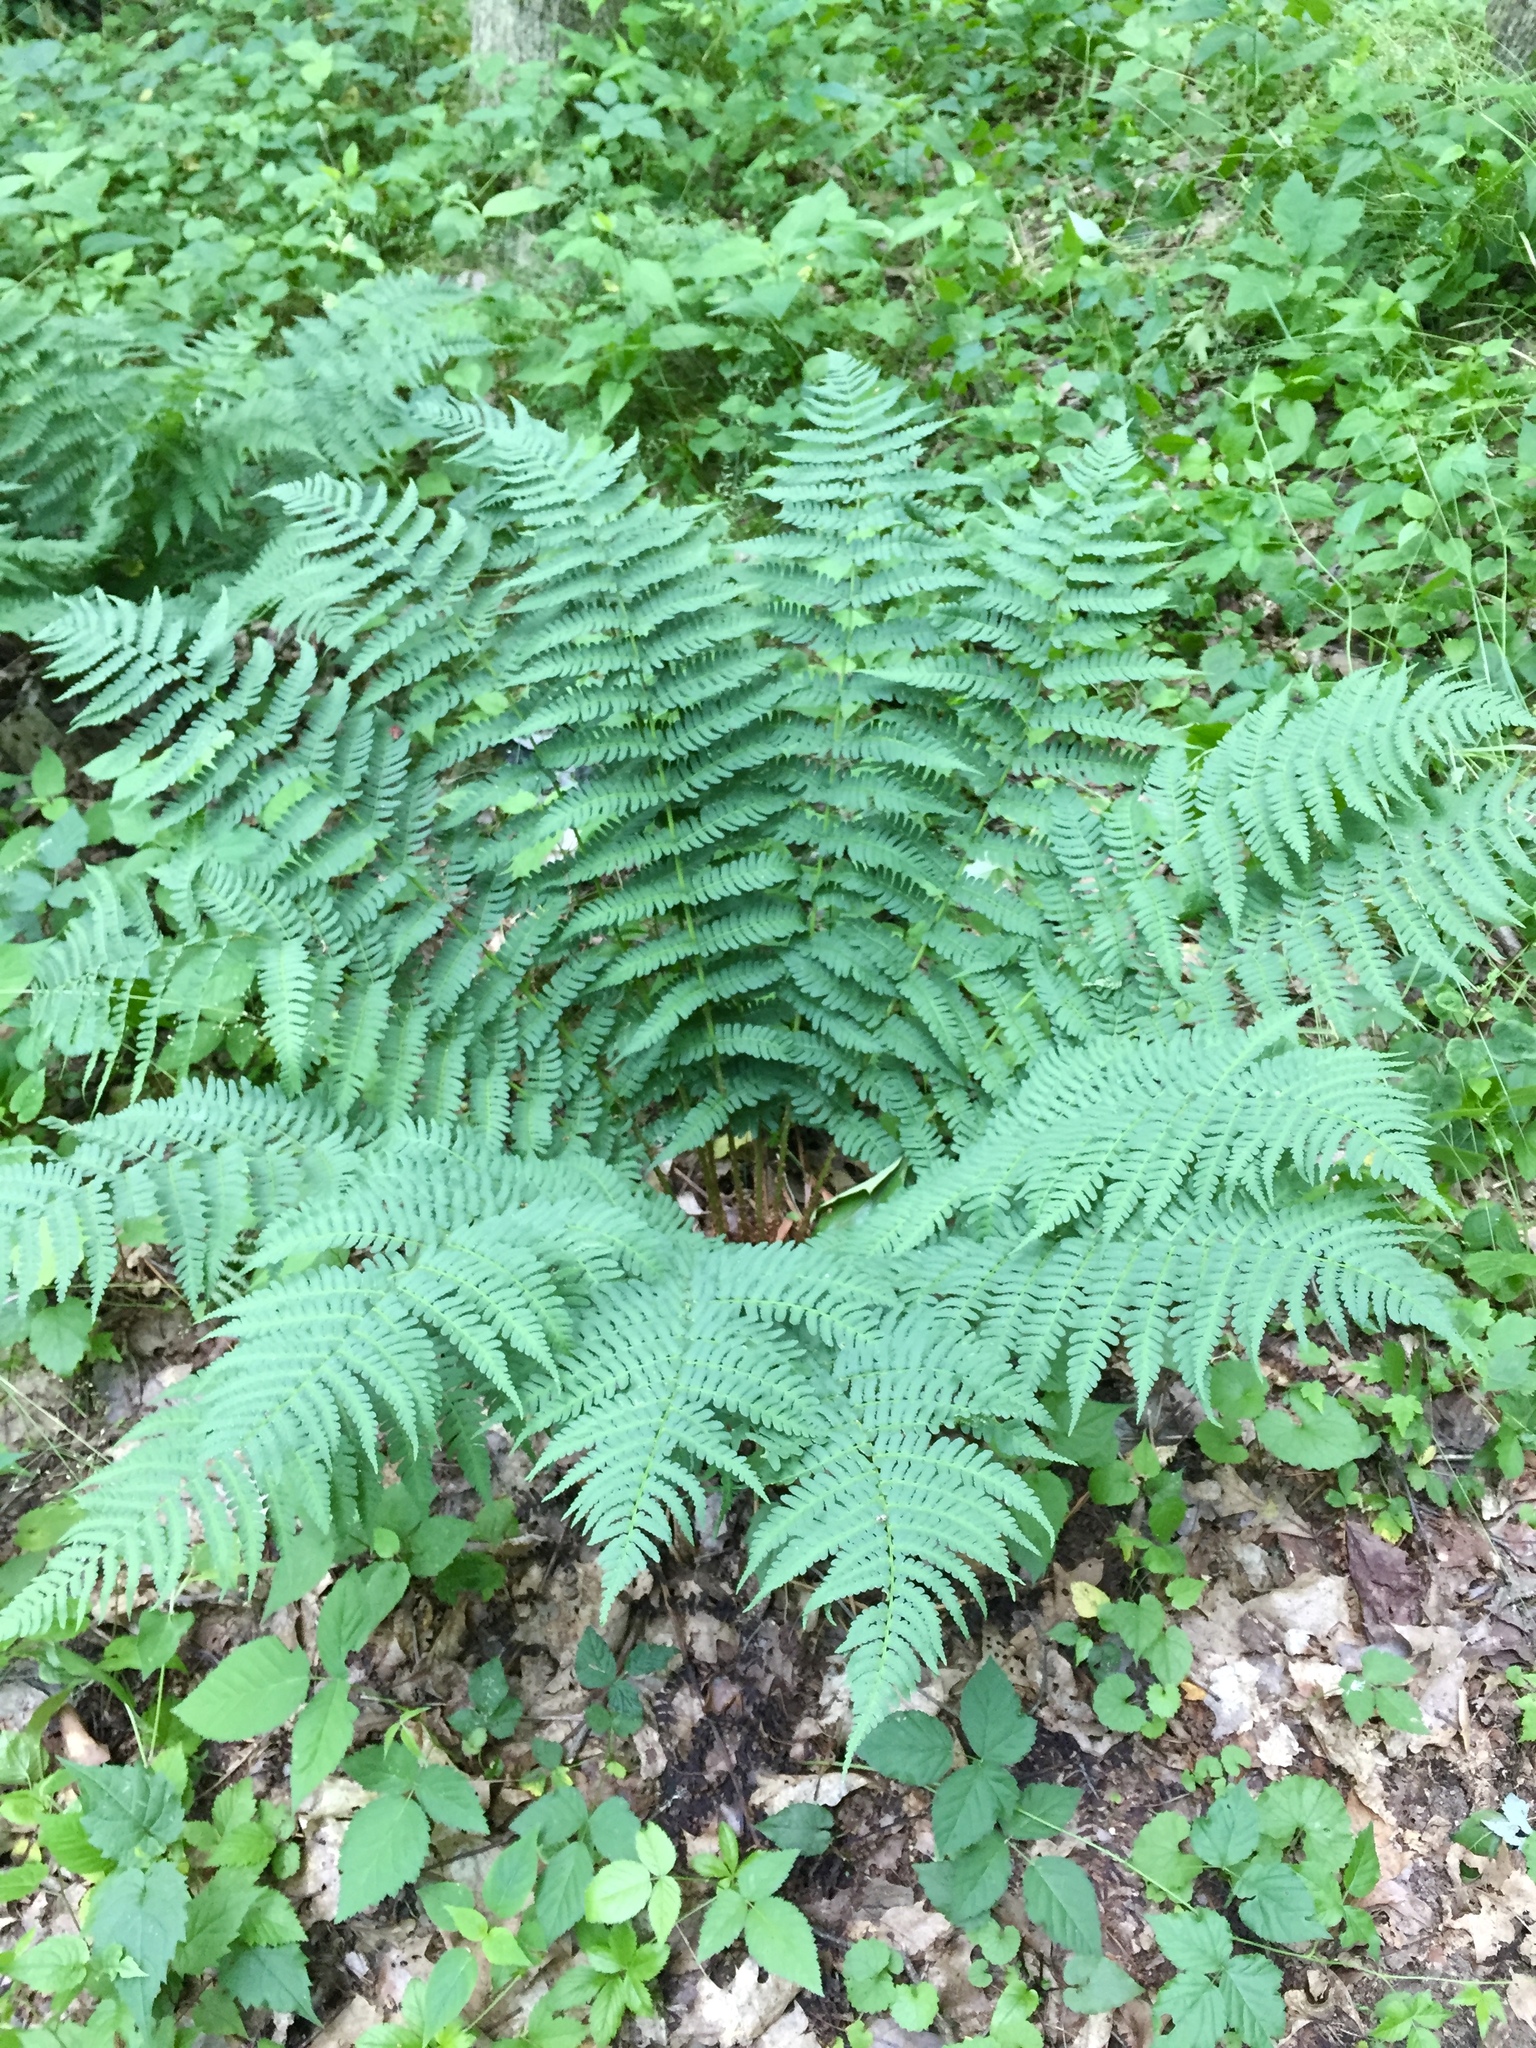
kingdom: Plantae
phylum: Tracheophyta
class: Polypodiopsida
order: Polypodiales
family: Dryopteridaceae
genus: Dryopteris
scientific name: Dryopteris marginalis
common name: Marginal wood fern
